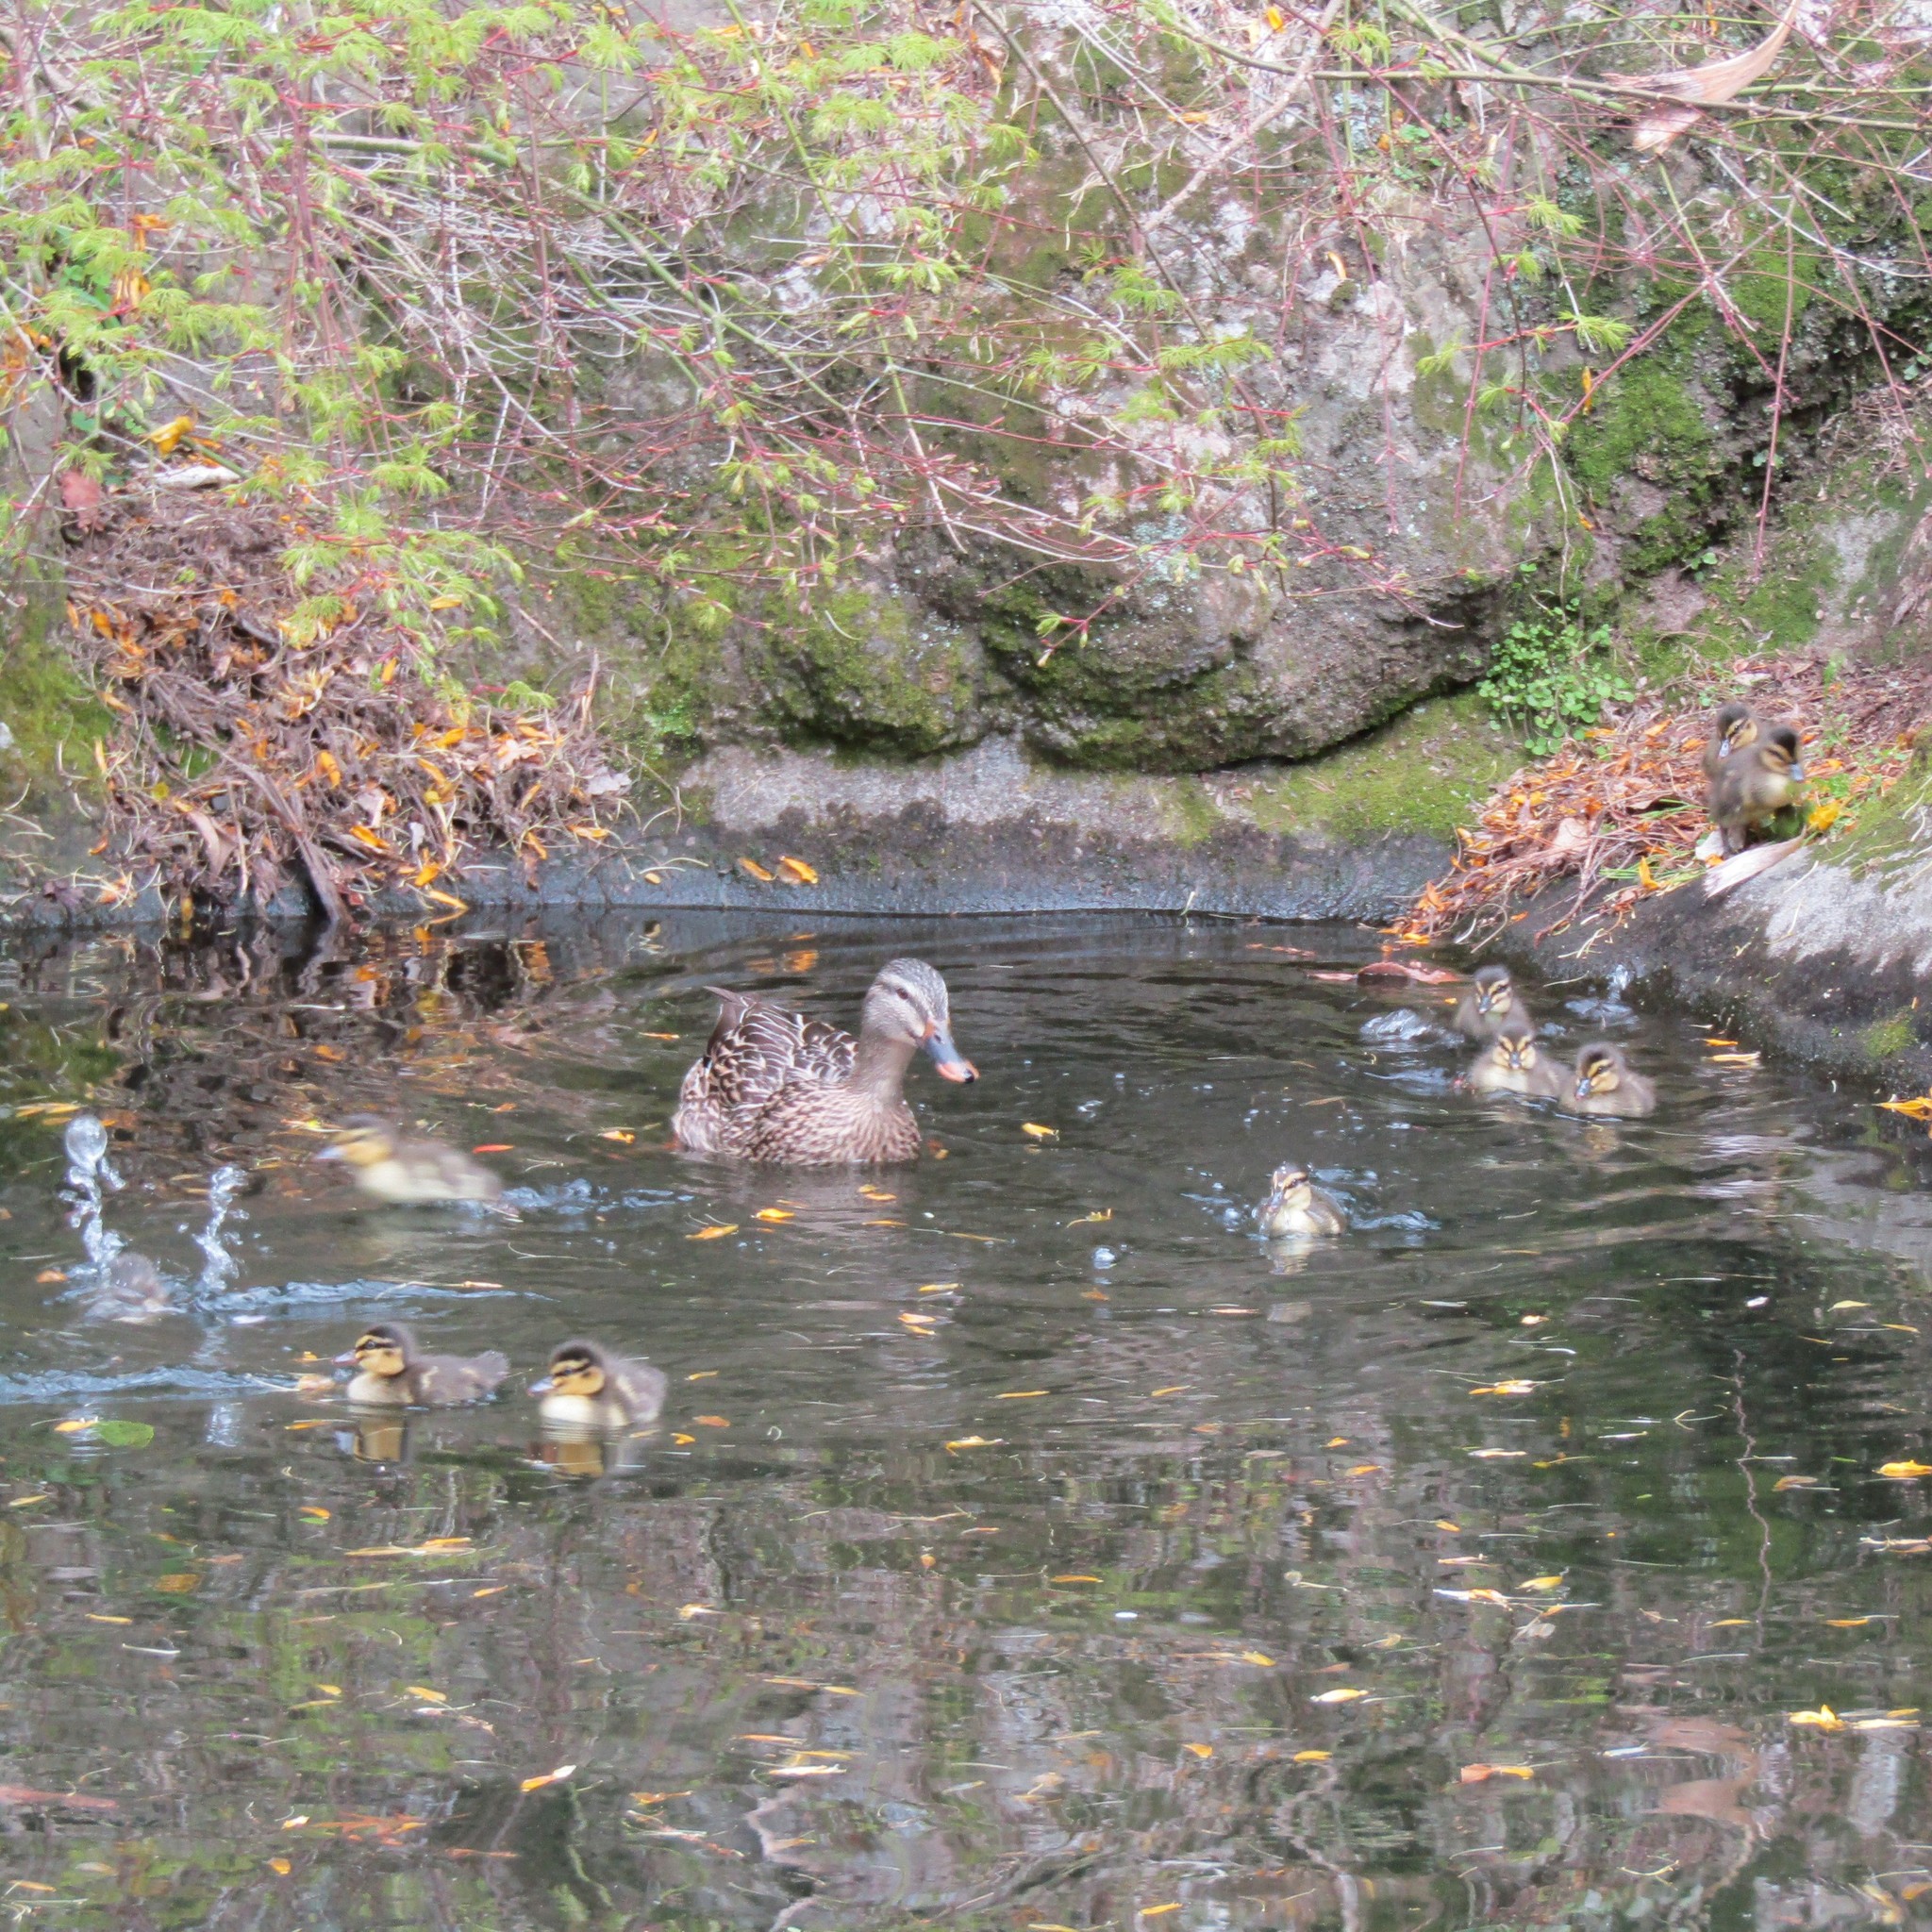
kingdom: Animalia
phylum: Chordata
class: Aves
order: Anseriformes
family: Anatidae
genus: Anas
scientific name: Anas platyrhynchos
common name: Mallard
